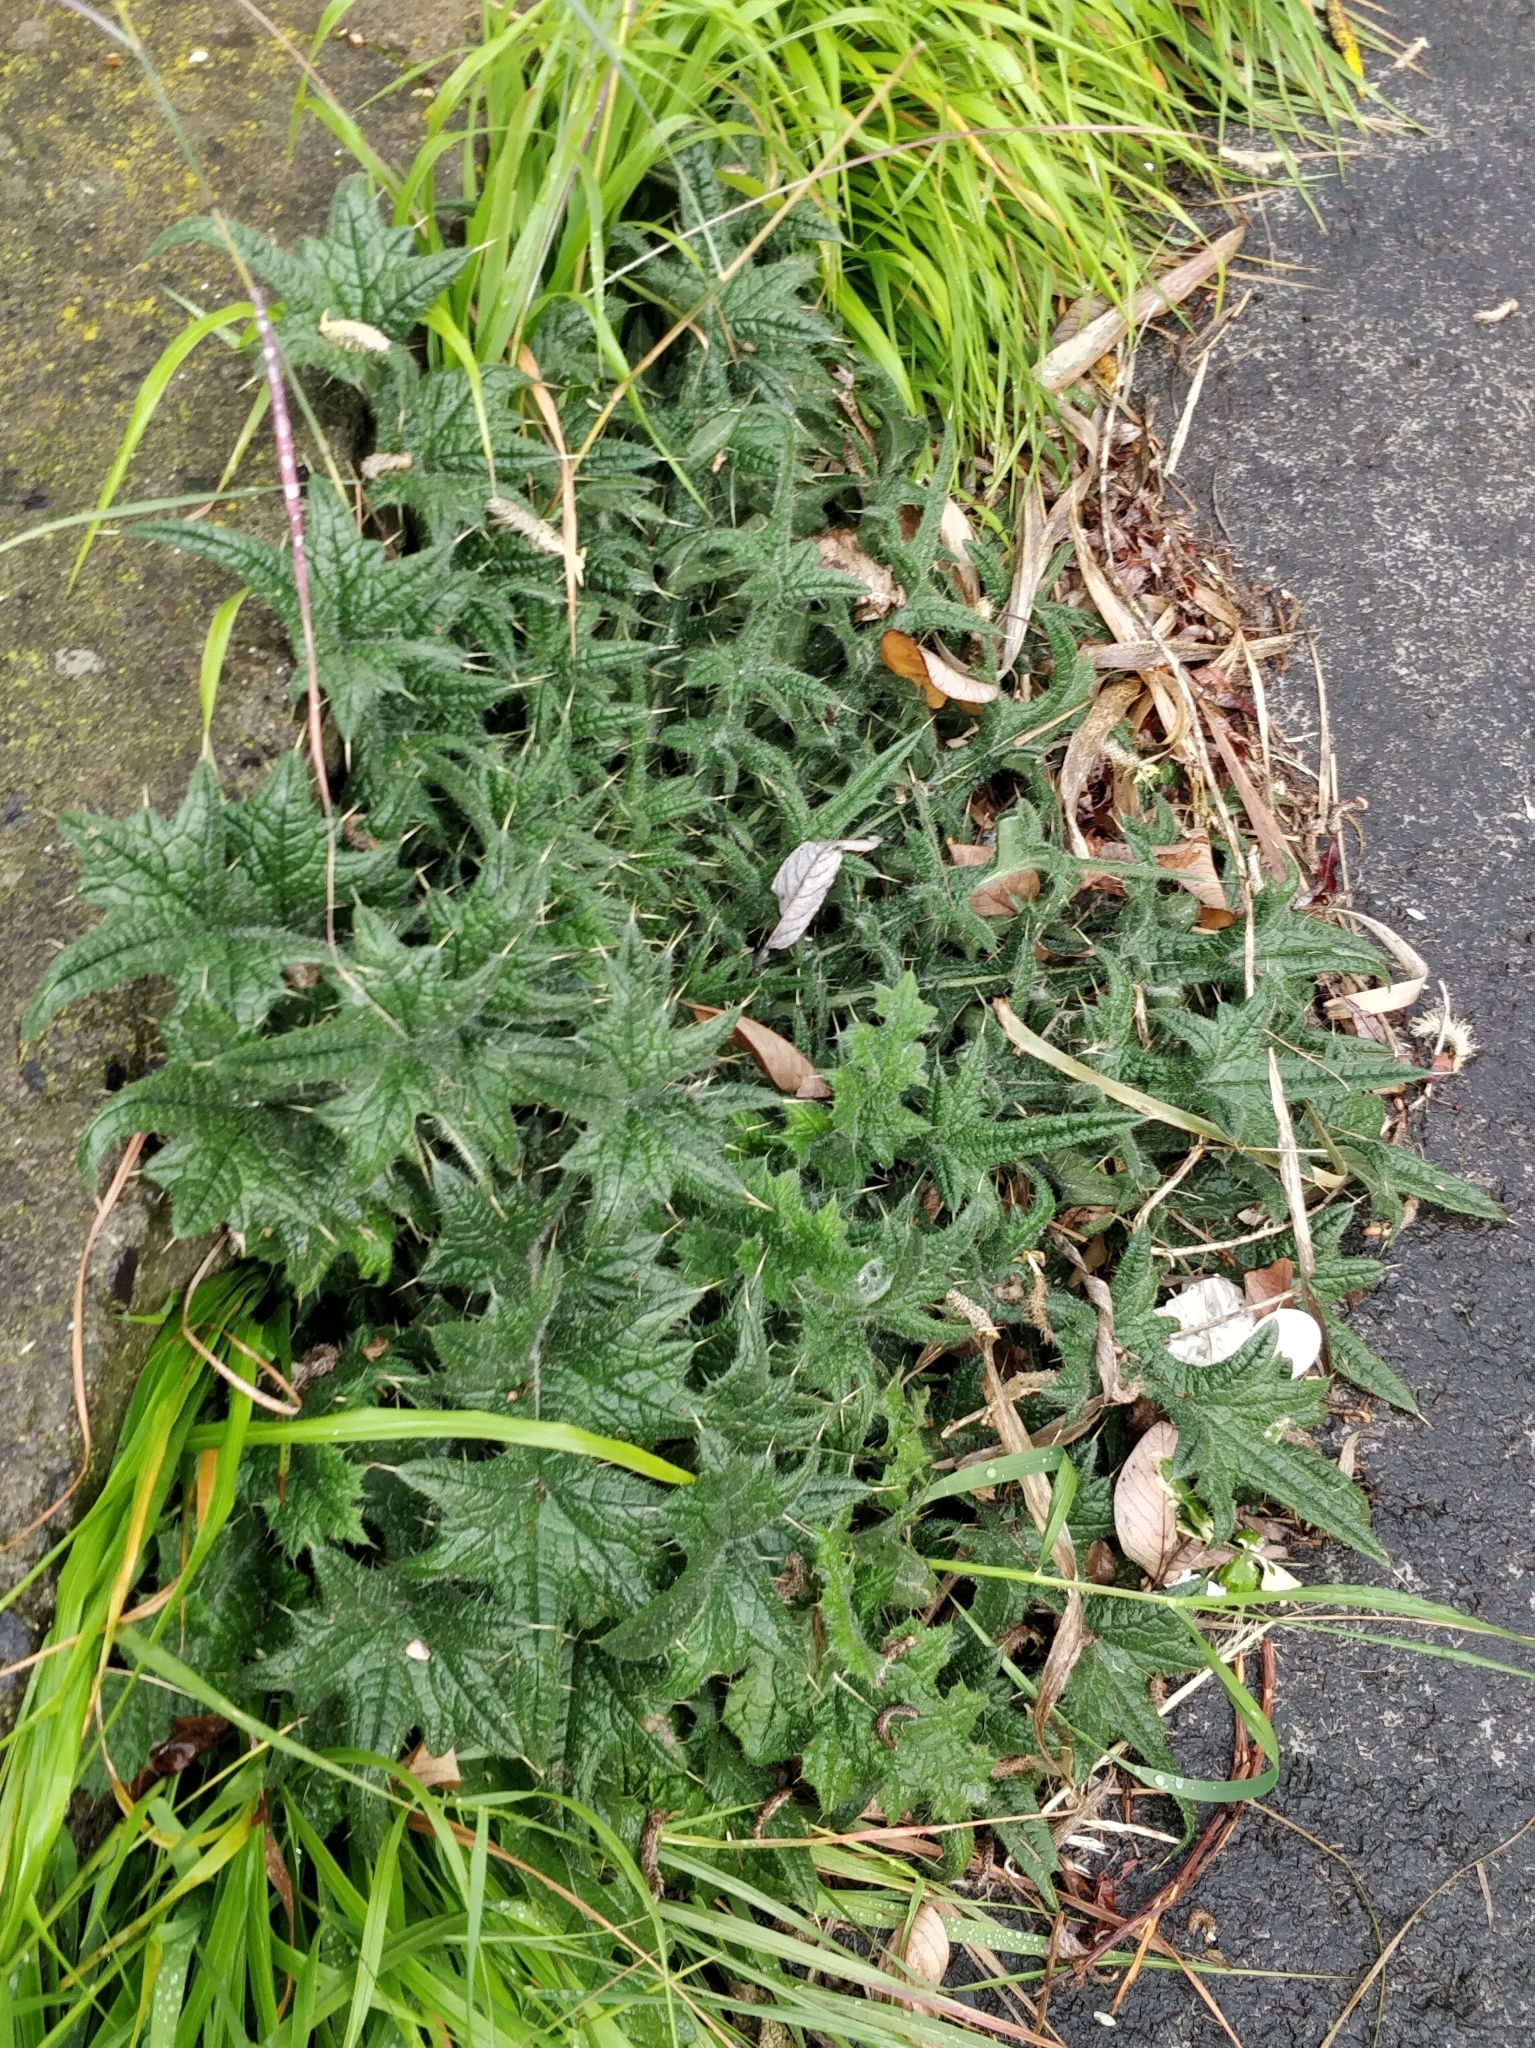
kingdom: Plantae
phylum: Tracheophyta
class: Magnoliopsida
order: Asterales
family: Asteraceae
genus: Cirsium
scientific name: Cirsium vulgare
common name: Bull thistle
